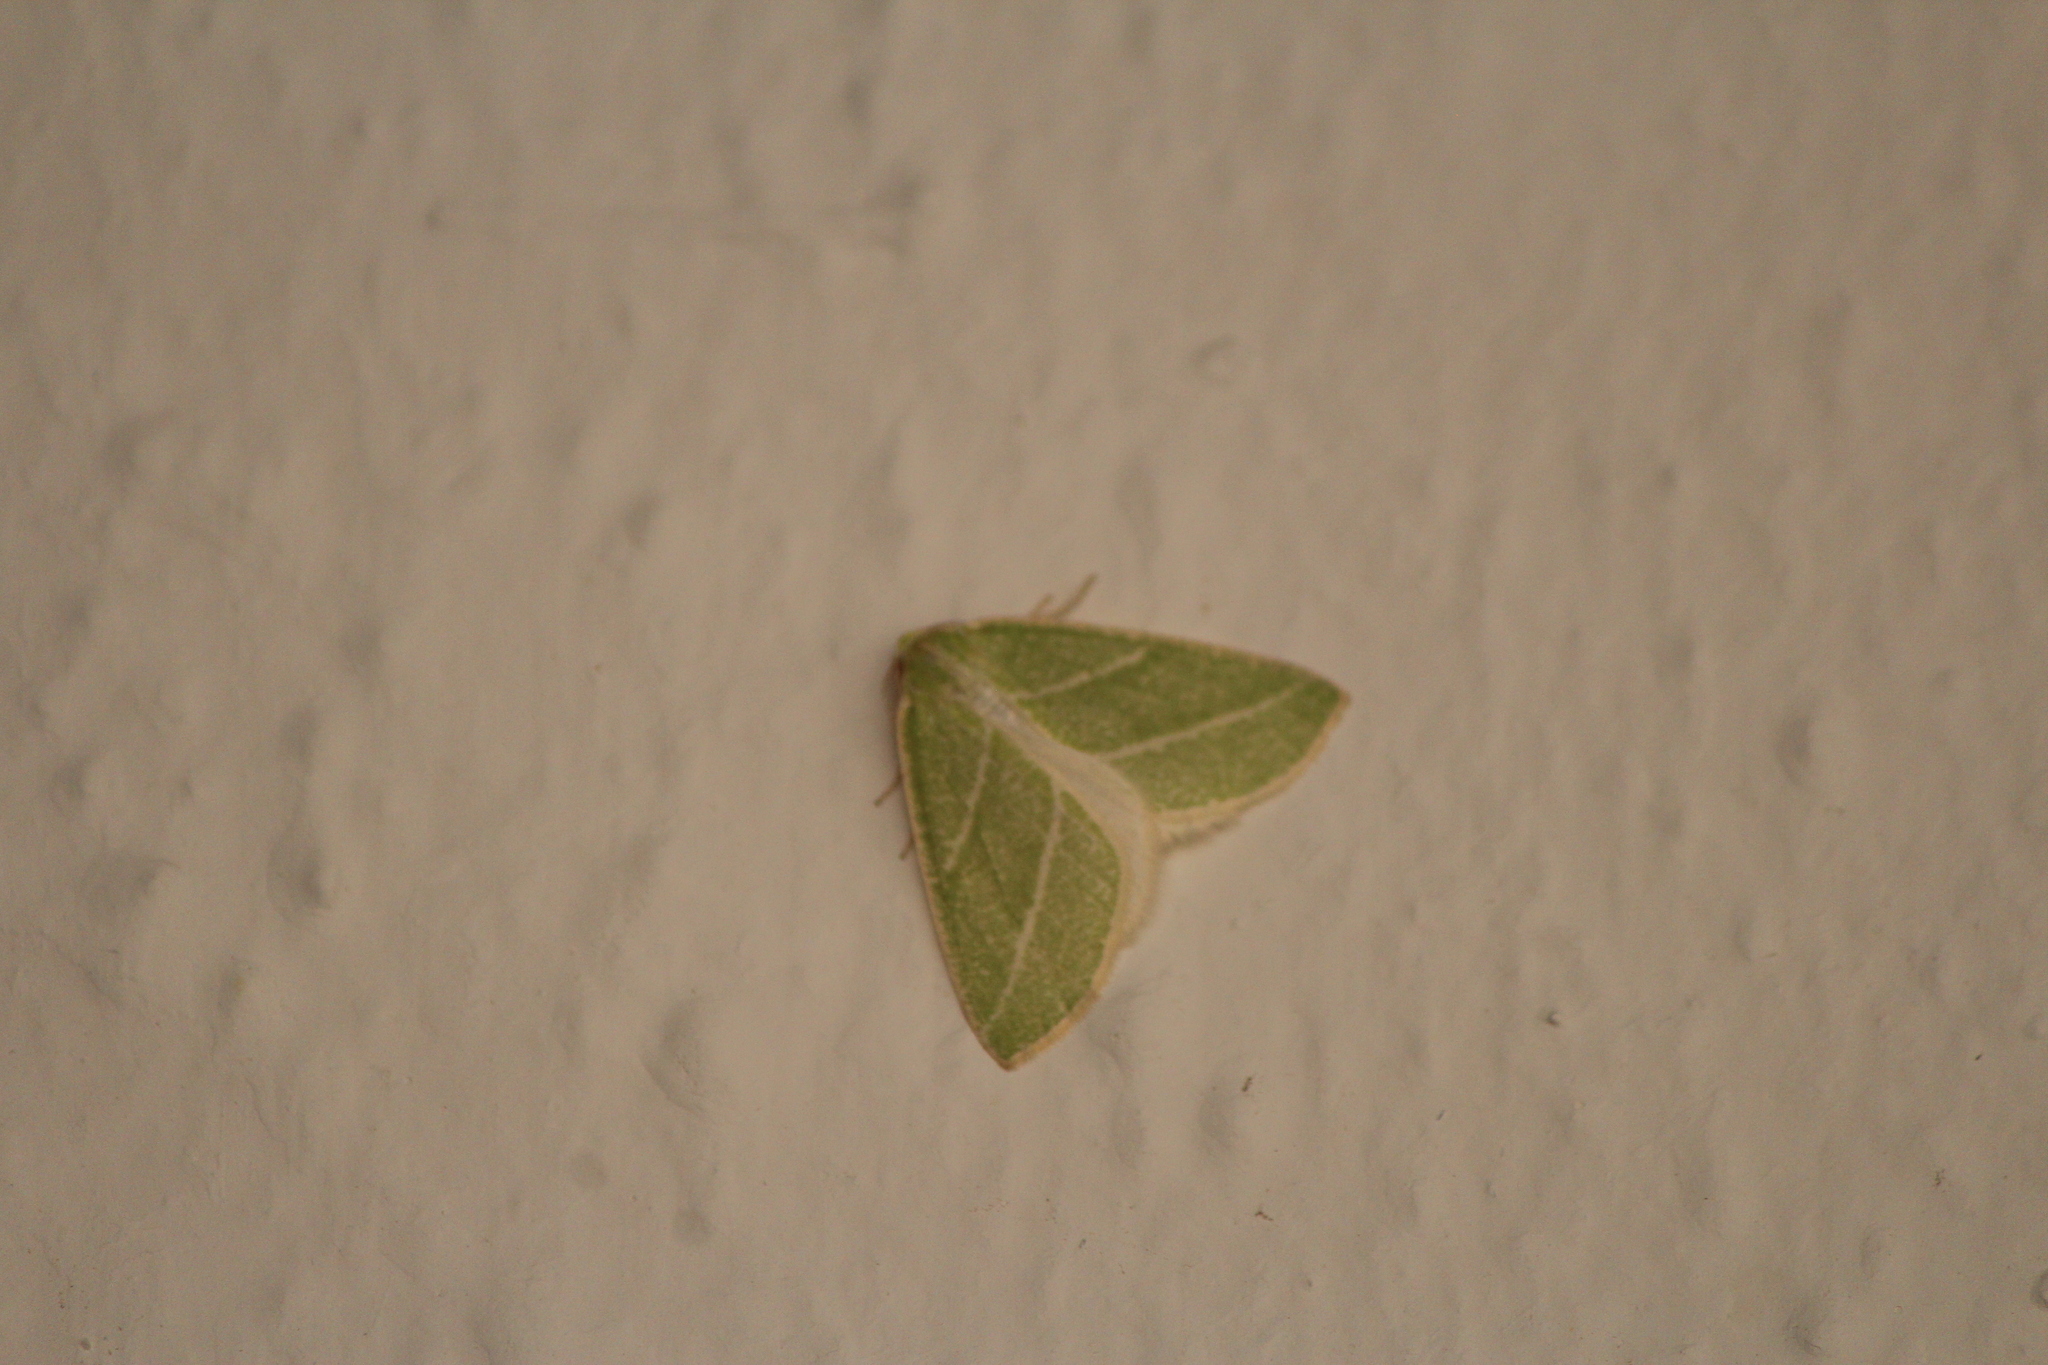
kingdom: Animalia
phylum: Arthropoda
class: Insecta
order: Lepidoptera
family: Geometridae
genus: Synchlora
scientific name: Synchlora bistriaria
